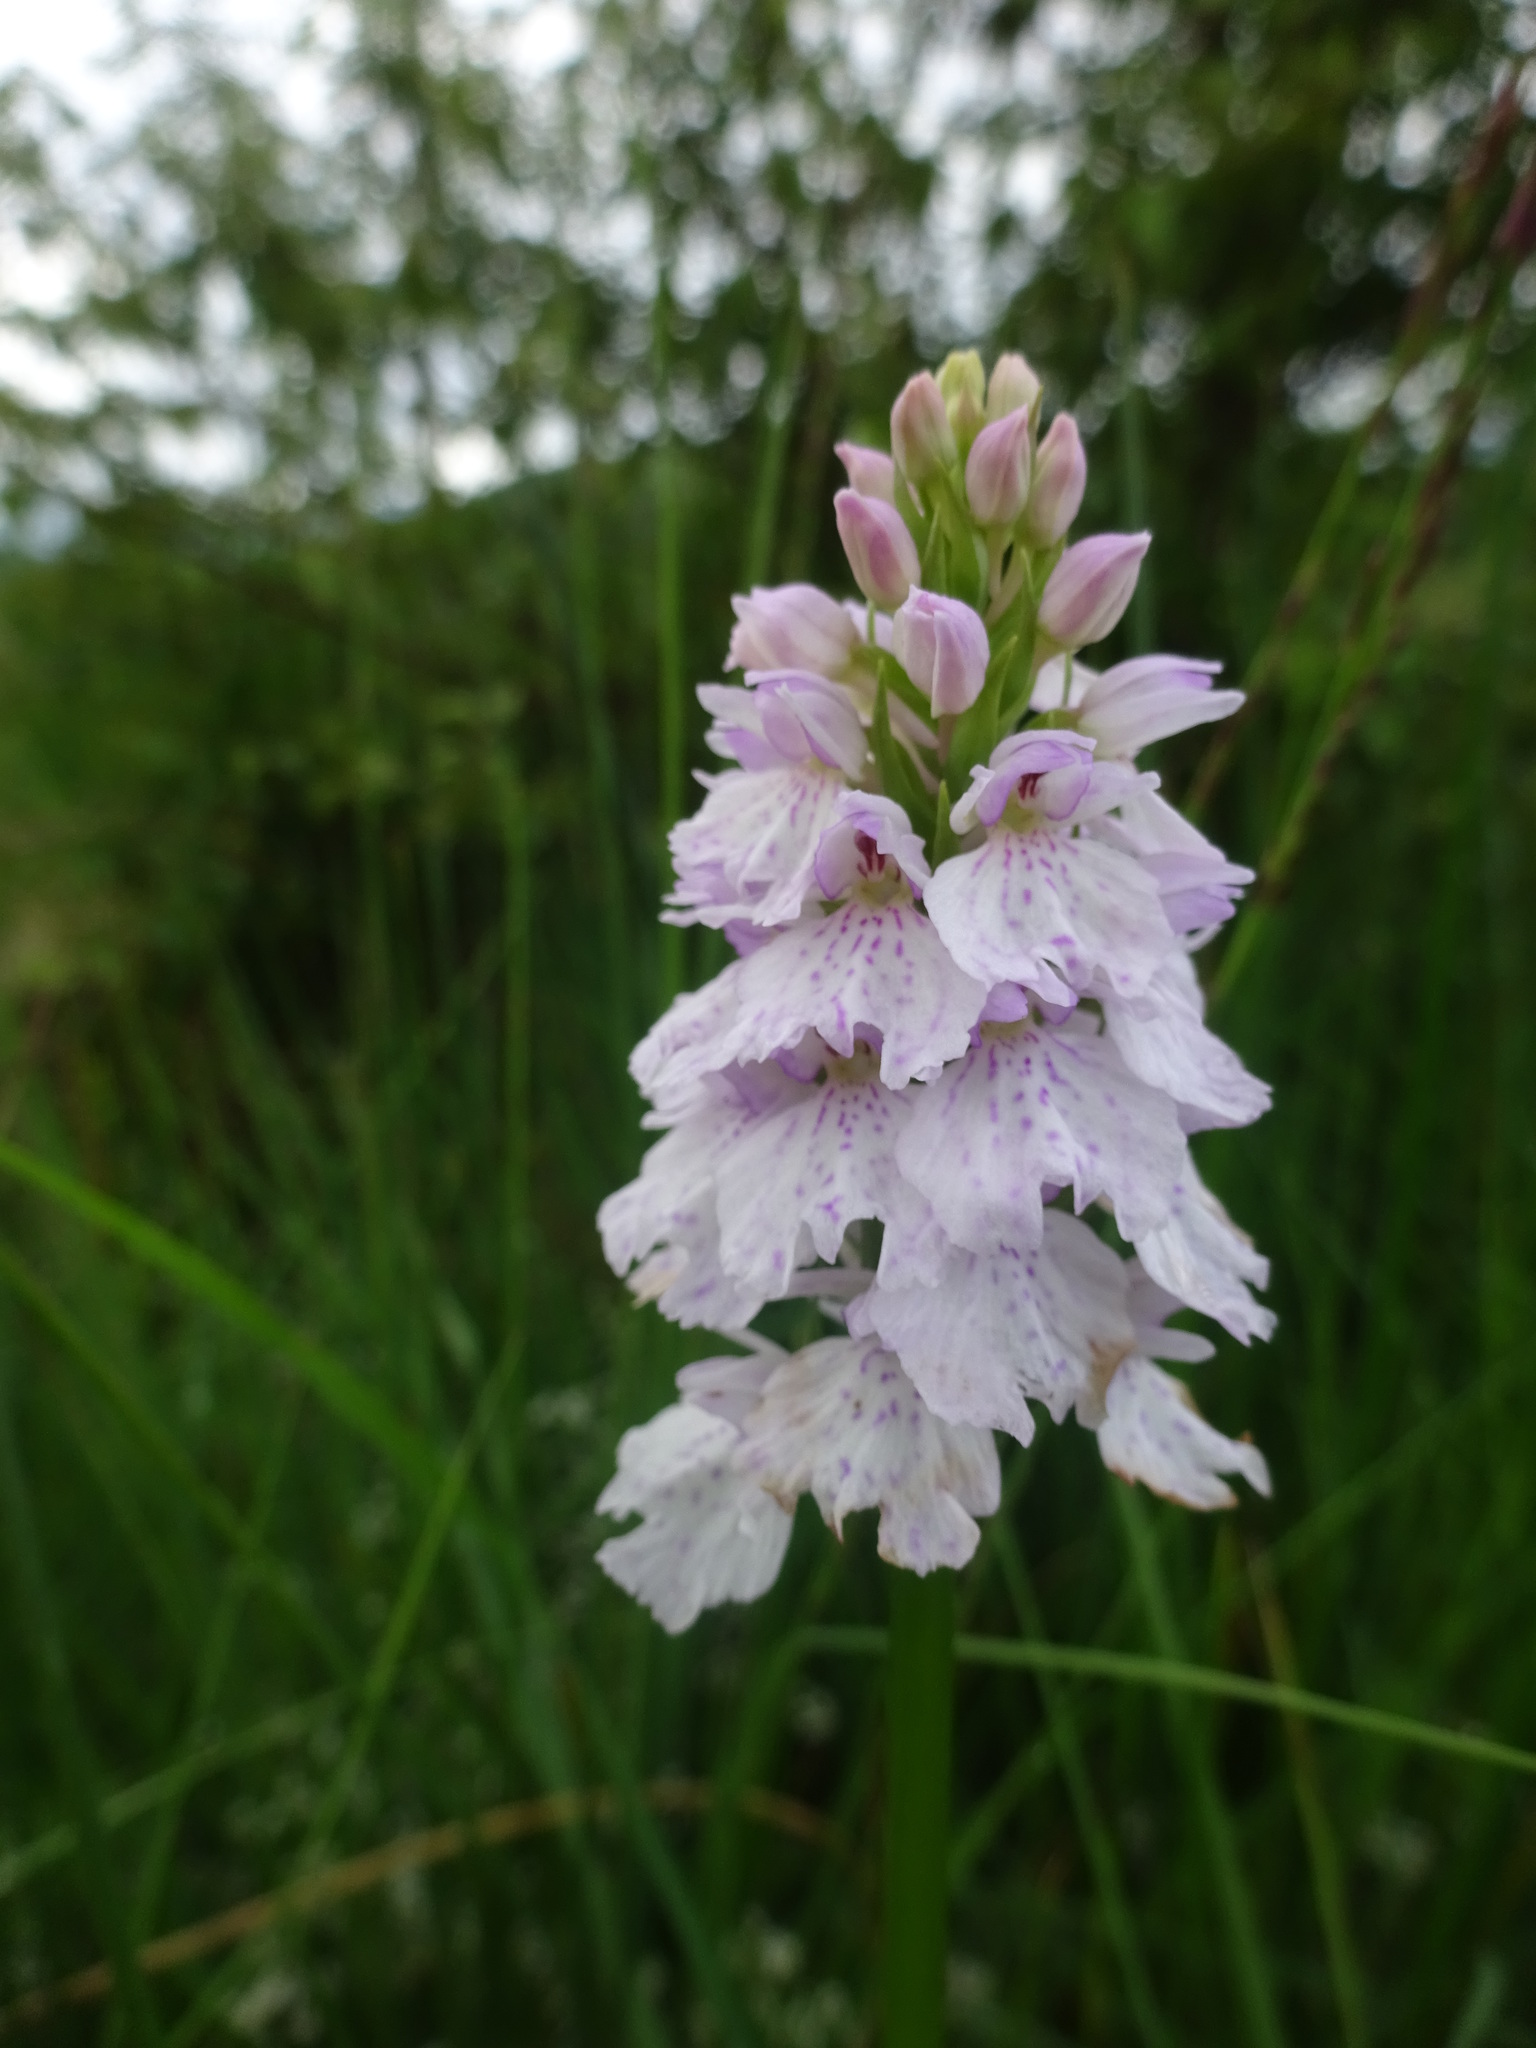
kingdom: Plantae
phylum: Tracheophyta
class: Liliopsida
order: Asparagales
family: Orchidaceae
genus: Dactylorhiza
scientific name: Dactylorhiza maculata
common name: Heath spotted-orchid
